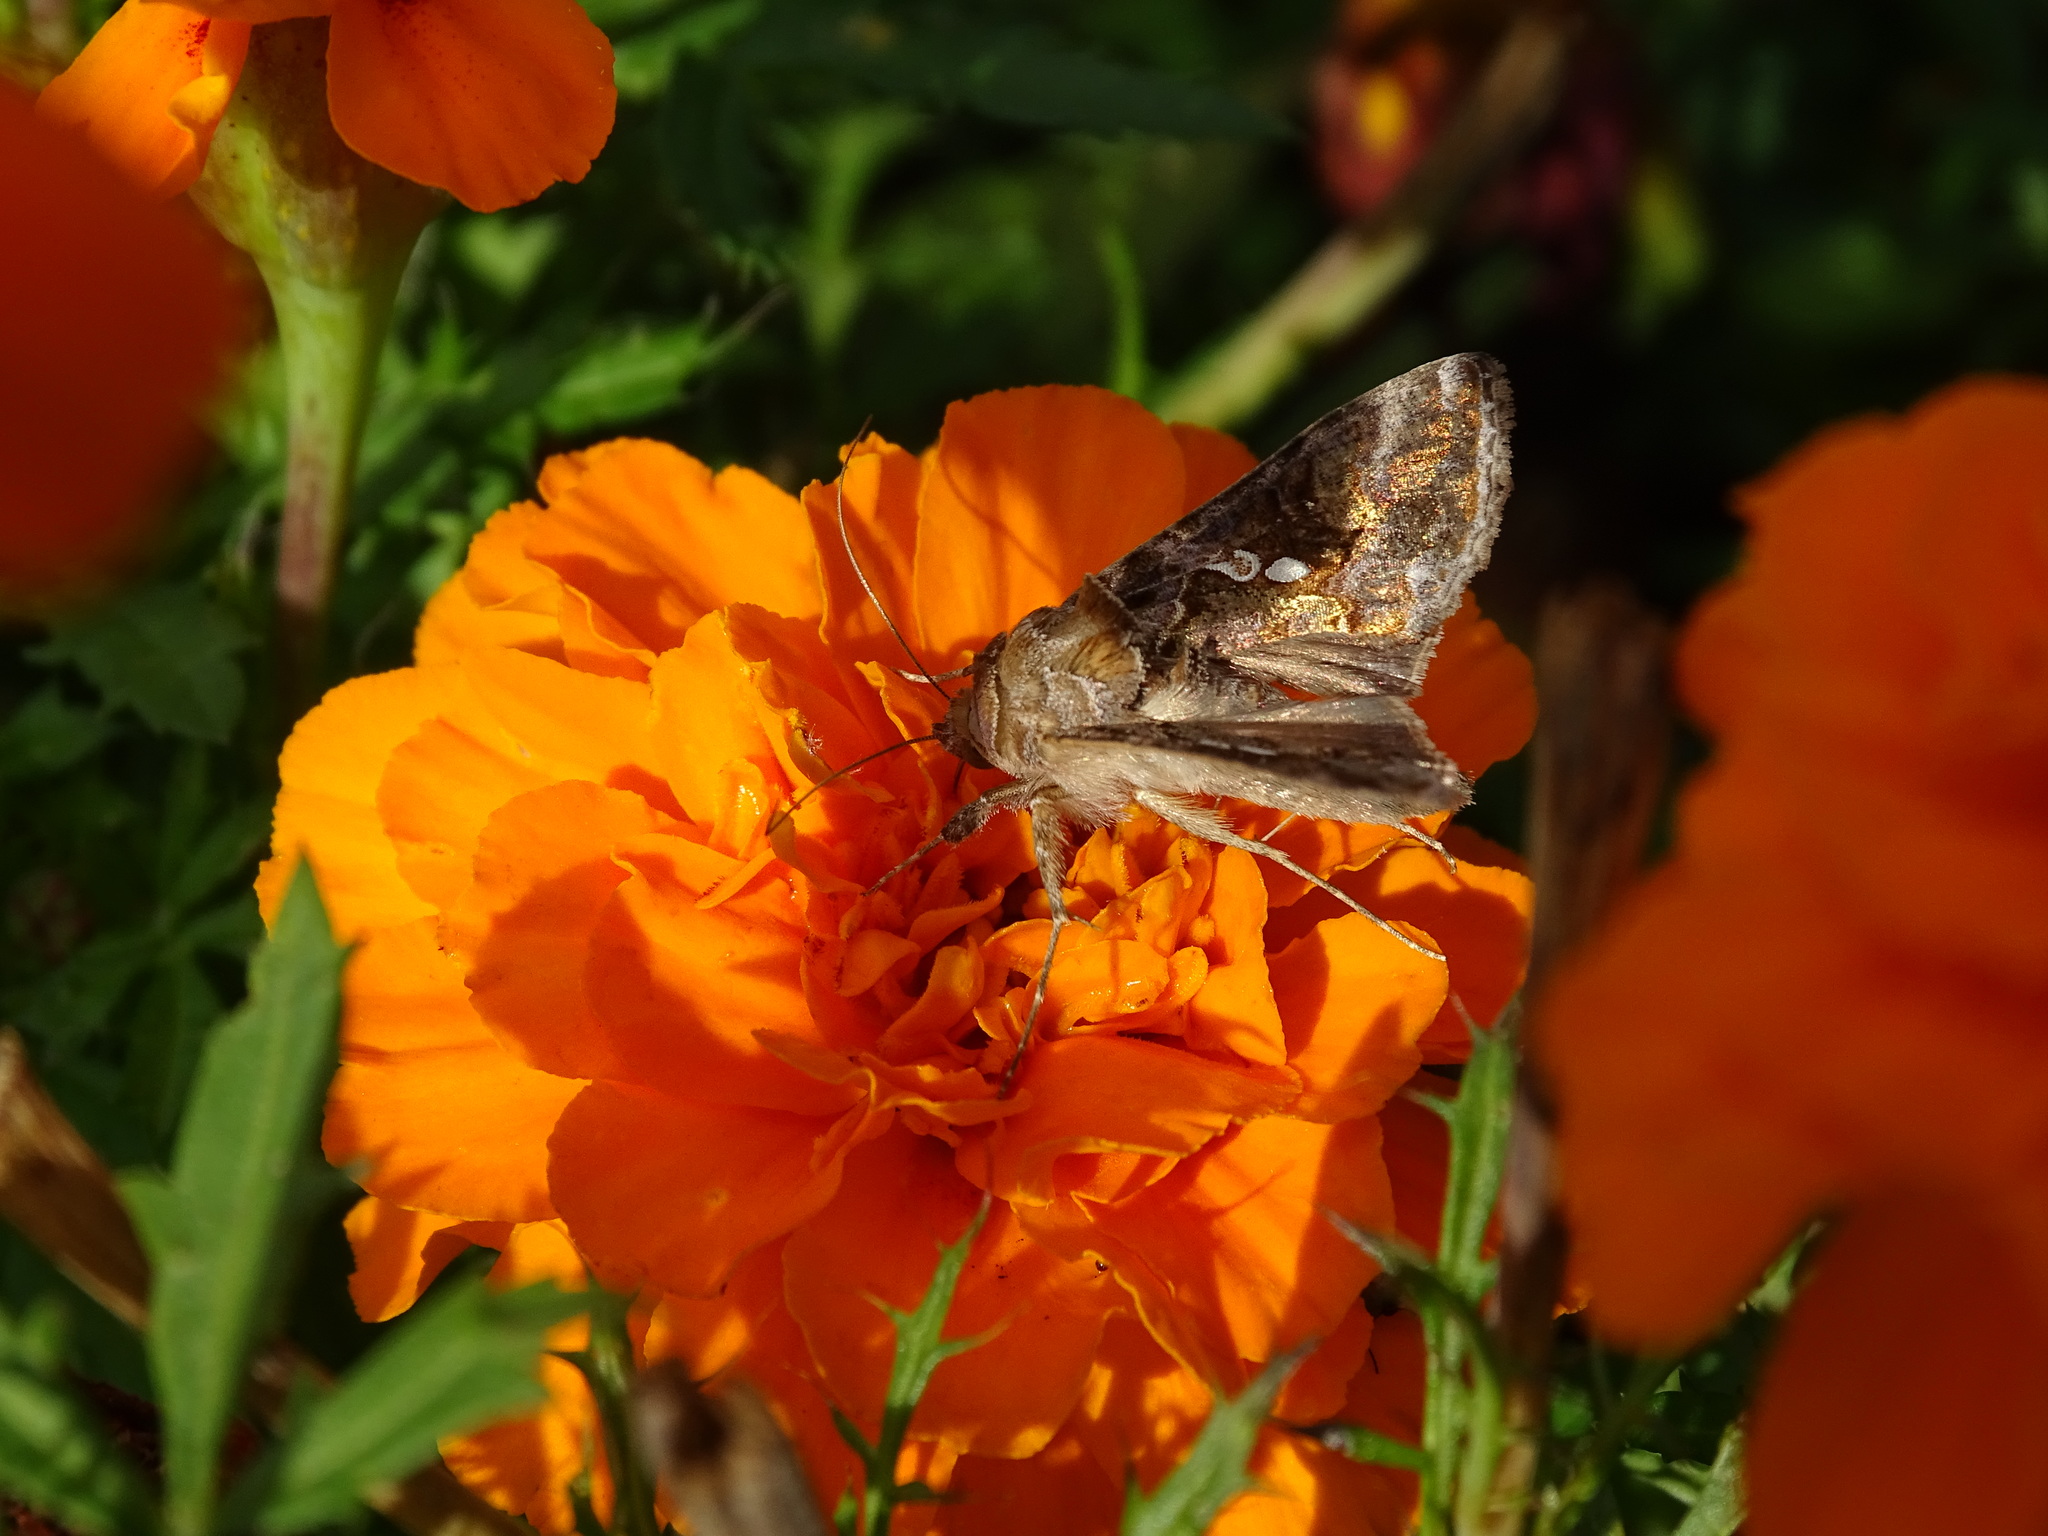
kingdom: Animalia
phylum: Arthropoda
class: Insecta
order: Lepidoptera
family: Noctuidae
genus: Chrysodeixis
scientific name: Chrysodeixis includens
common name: Cutworm moth
